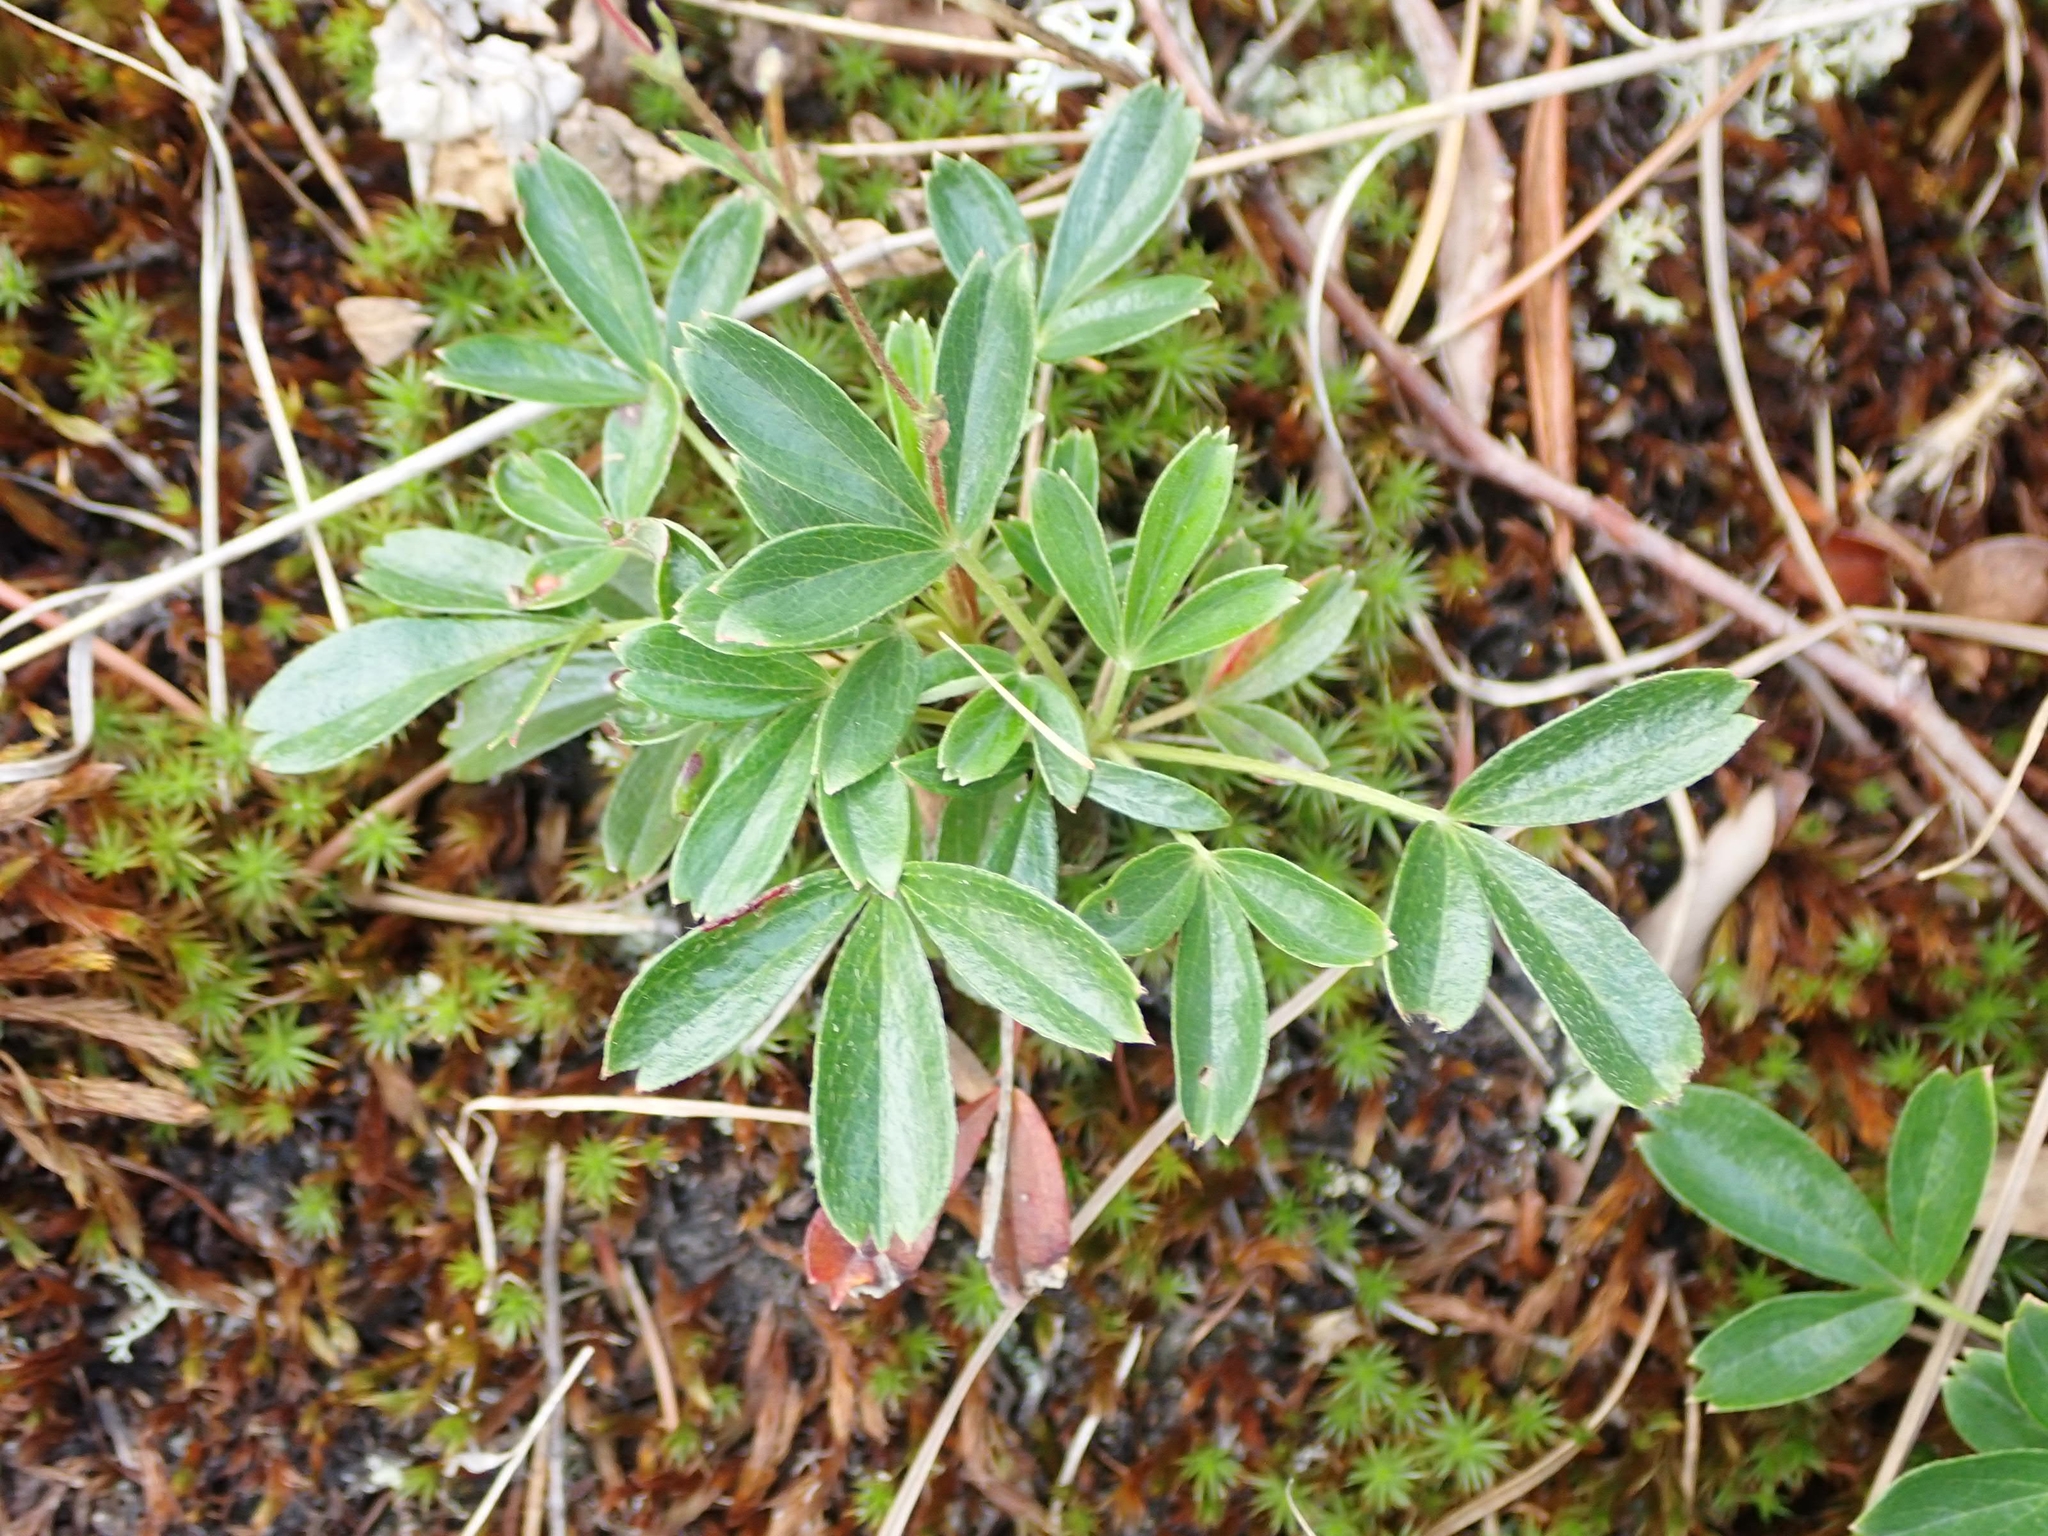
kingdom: Plantae
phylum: Tracheophyta
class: Magnoliopsida
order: Rosales
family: Rosaceae
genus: Sibbaldia
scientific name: Sibbaldia tridentata
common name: Three-toothed cinquefoil
